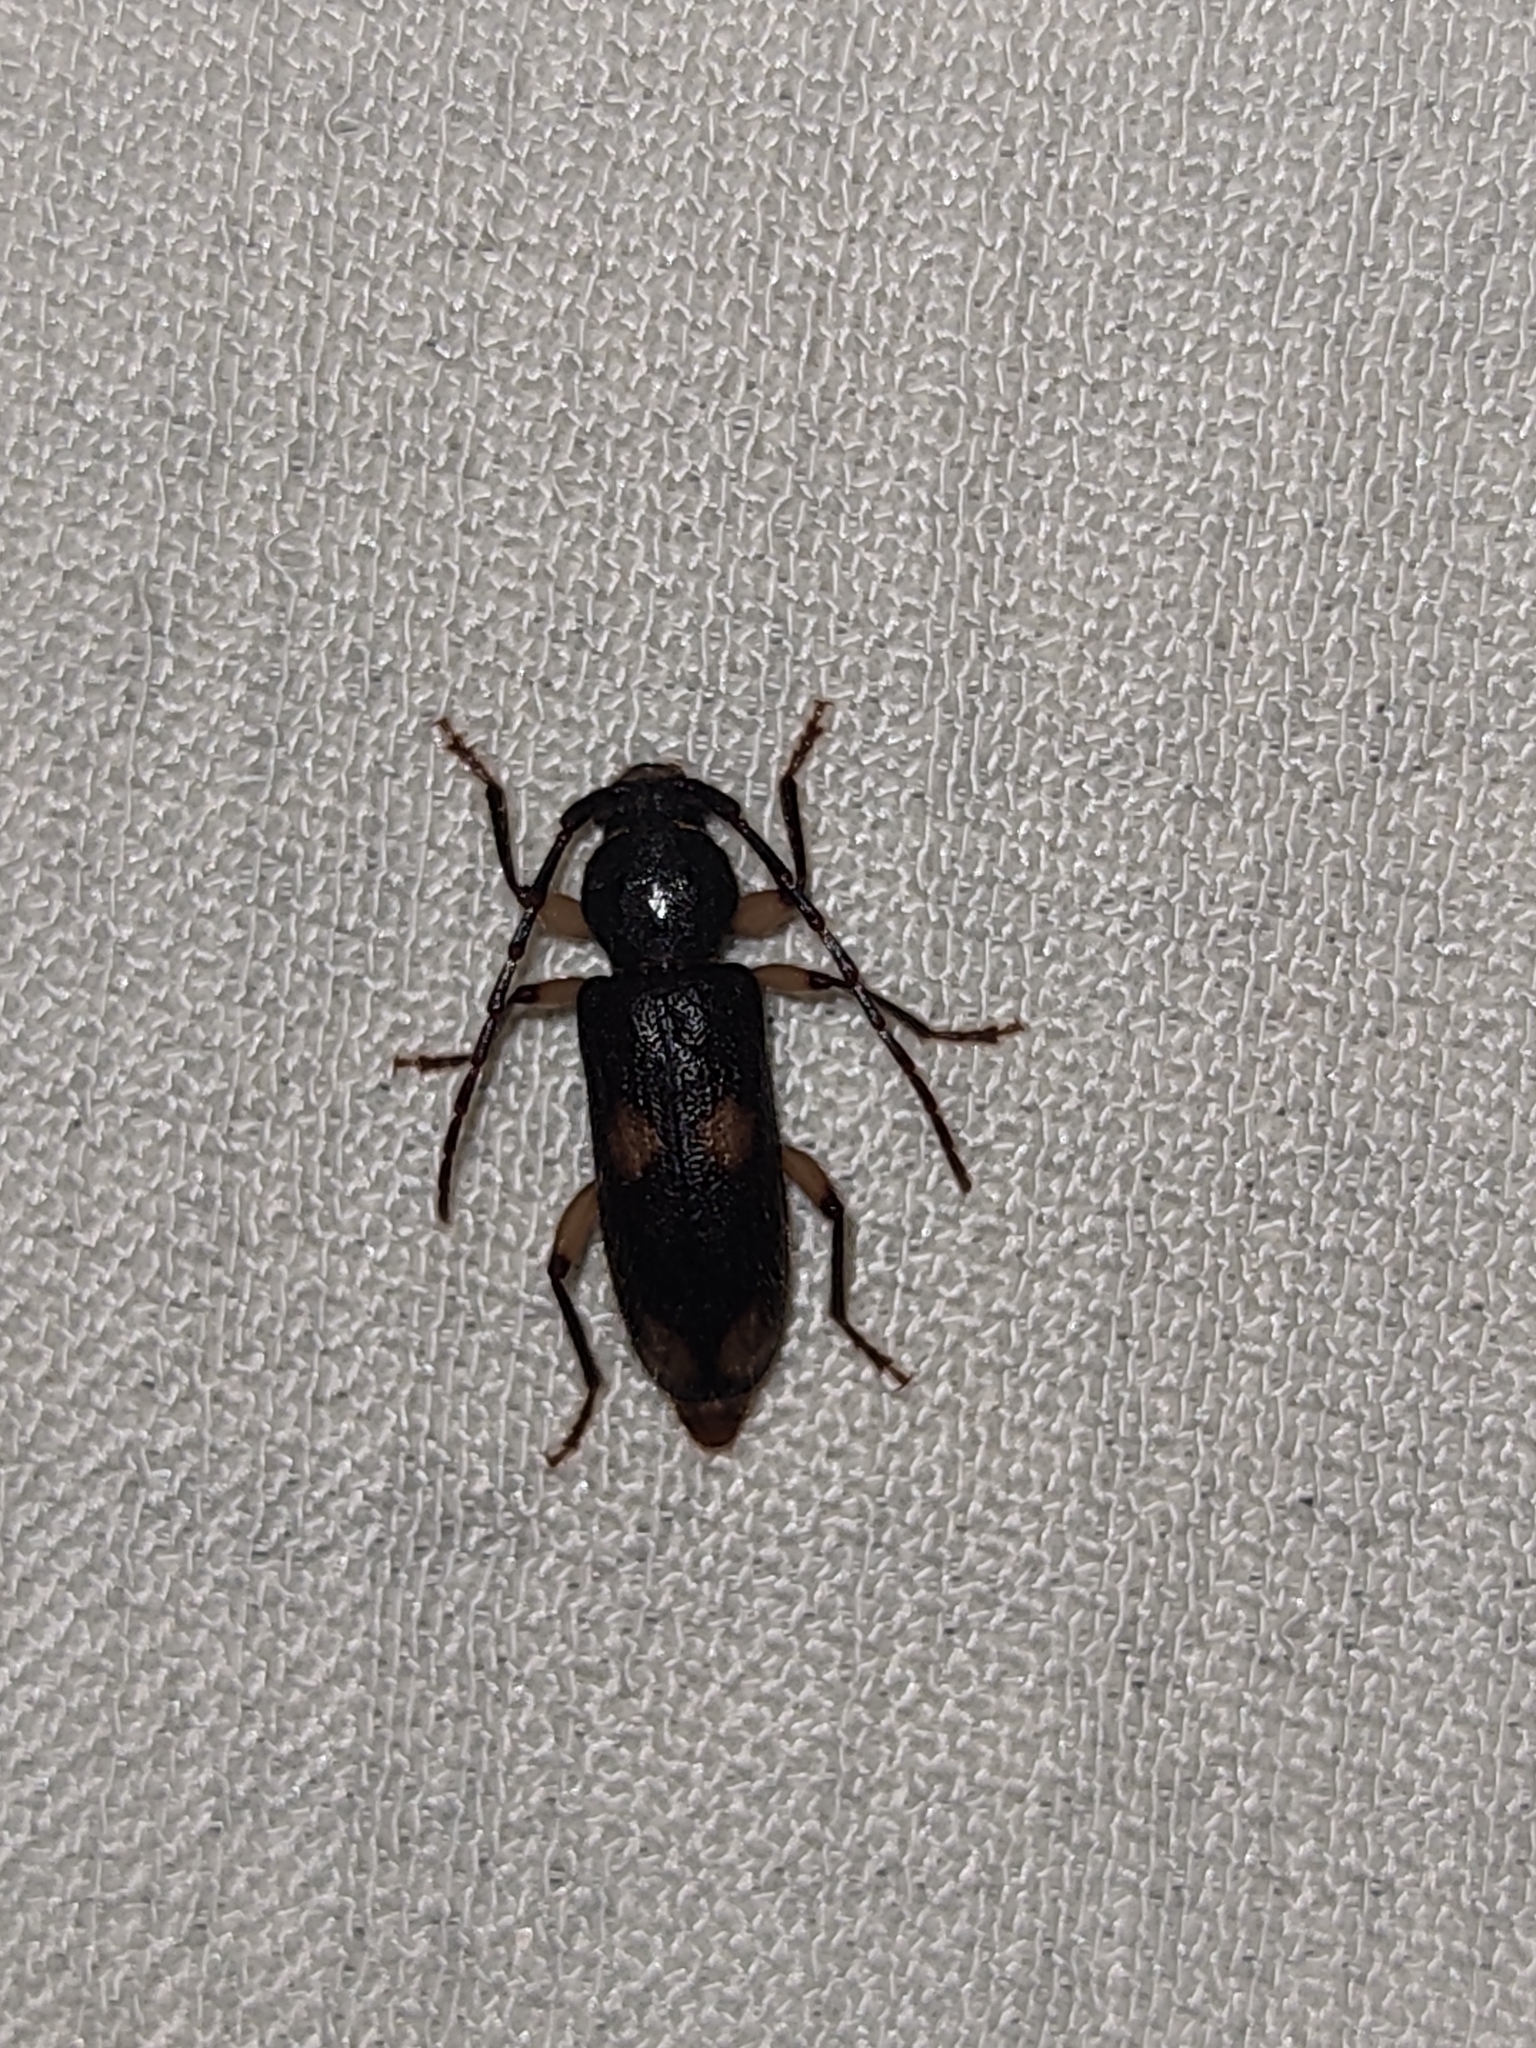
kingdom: Animalia
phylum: Arthropoda
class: Insecta
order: Coleoptera
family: Cerambycidae
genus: Tylonotus
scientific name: Tylonotus bimaculatus
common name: Ash and privet borer
